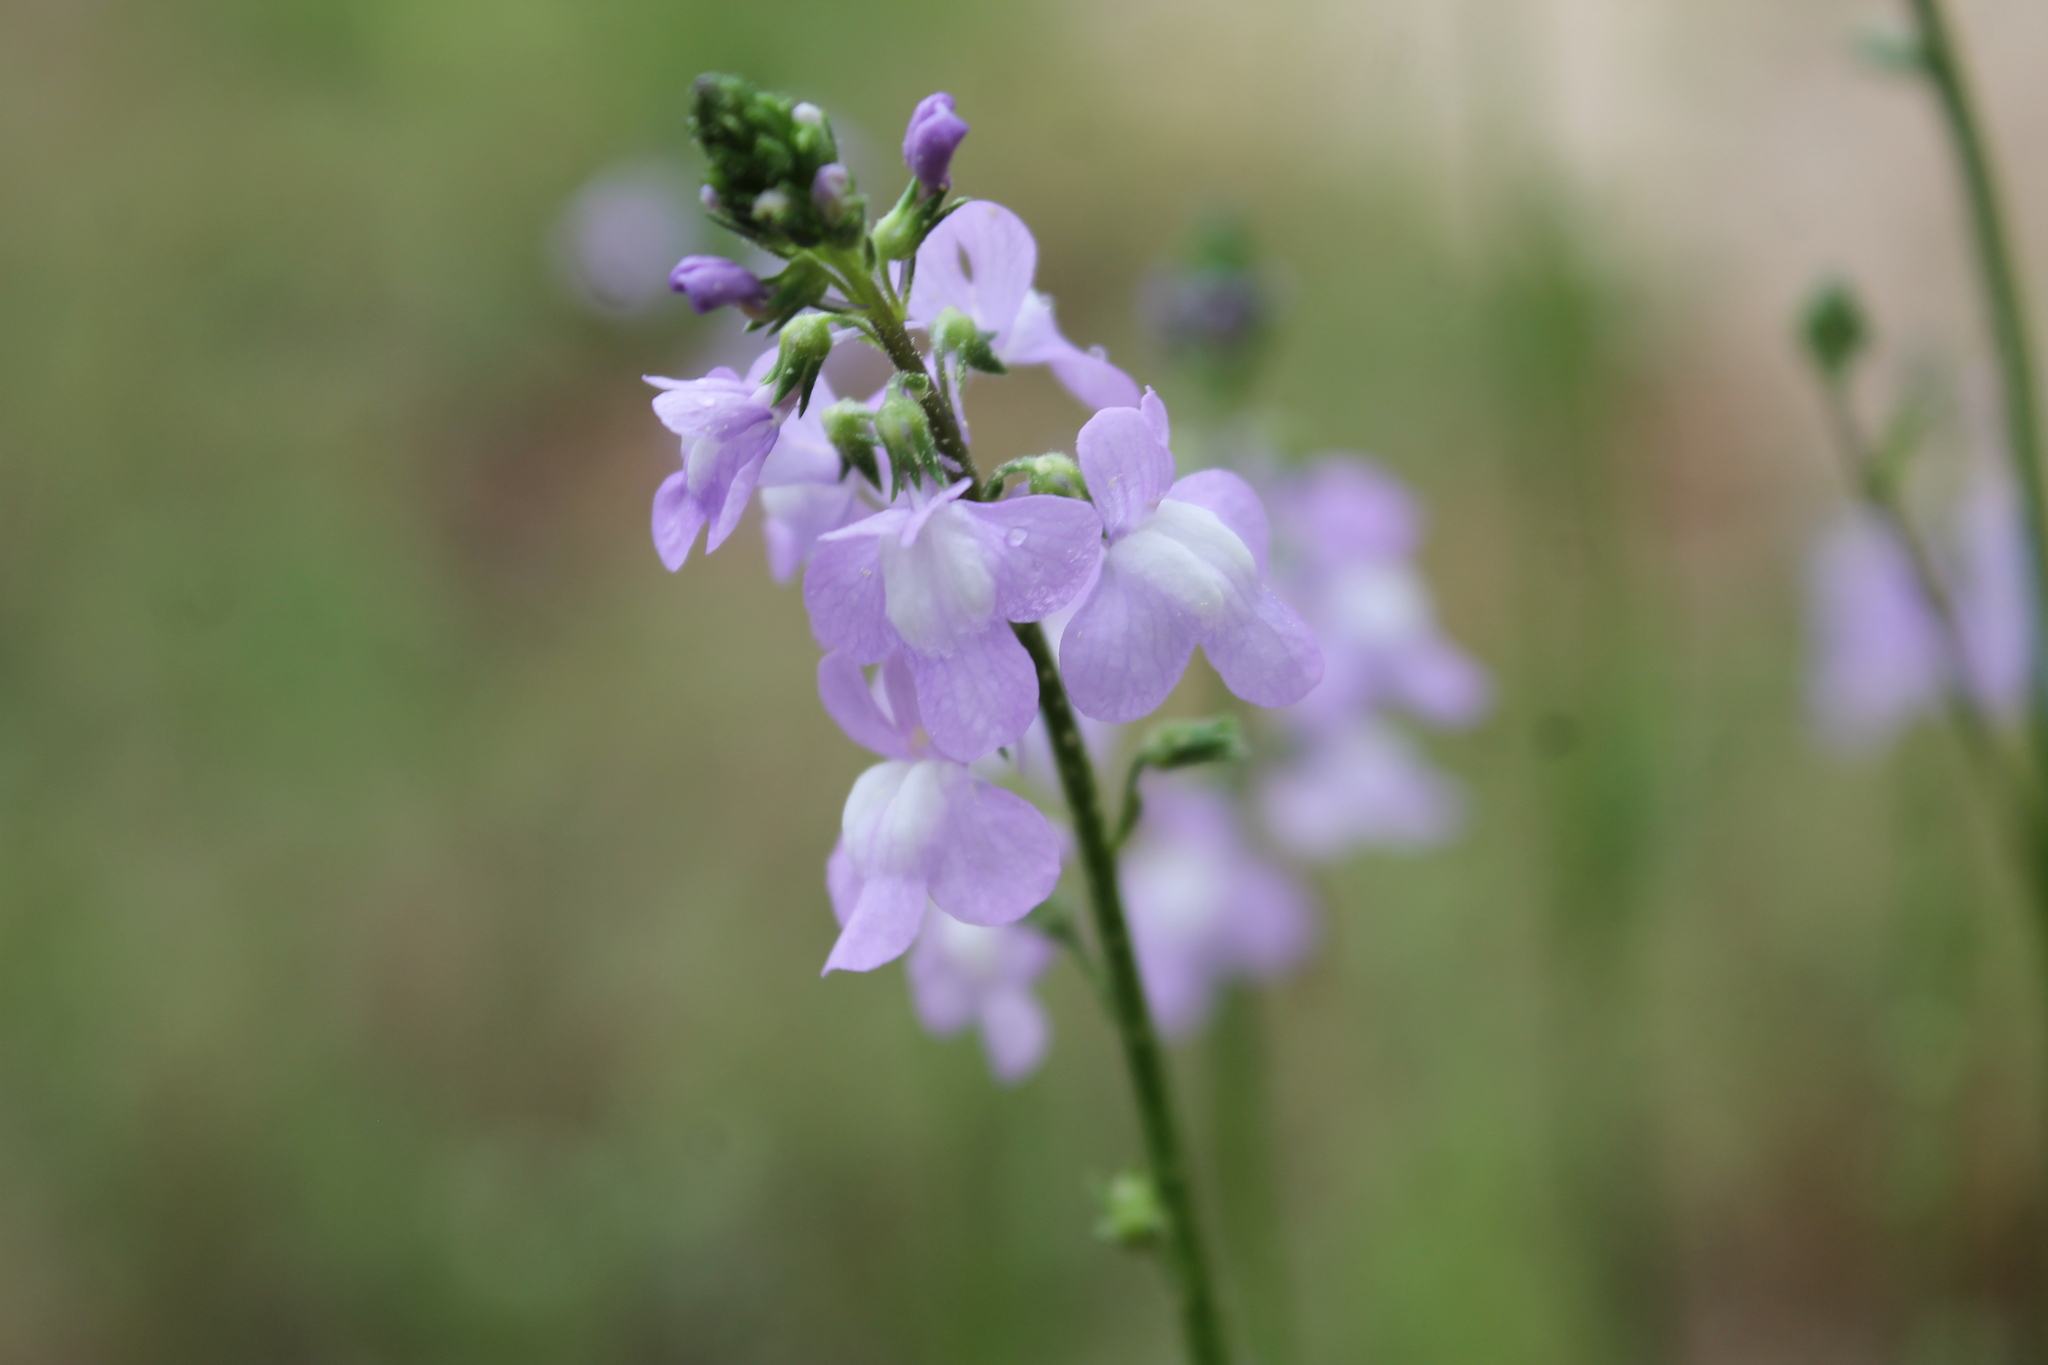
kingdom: Plantae
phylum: Tracheophyta
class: Magnoliopsida
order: Lamiales
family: Plantaginaceae
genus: Nuttallanthus
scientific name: Nuttallanthus canadensis
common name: Blue toadflax
